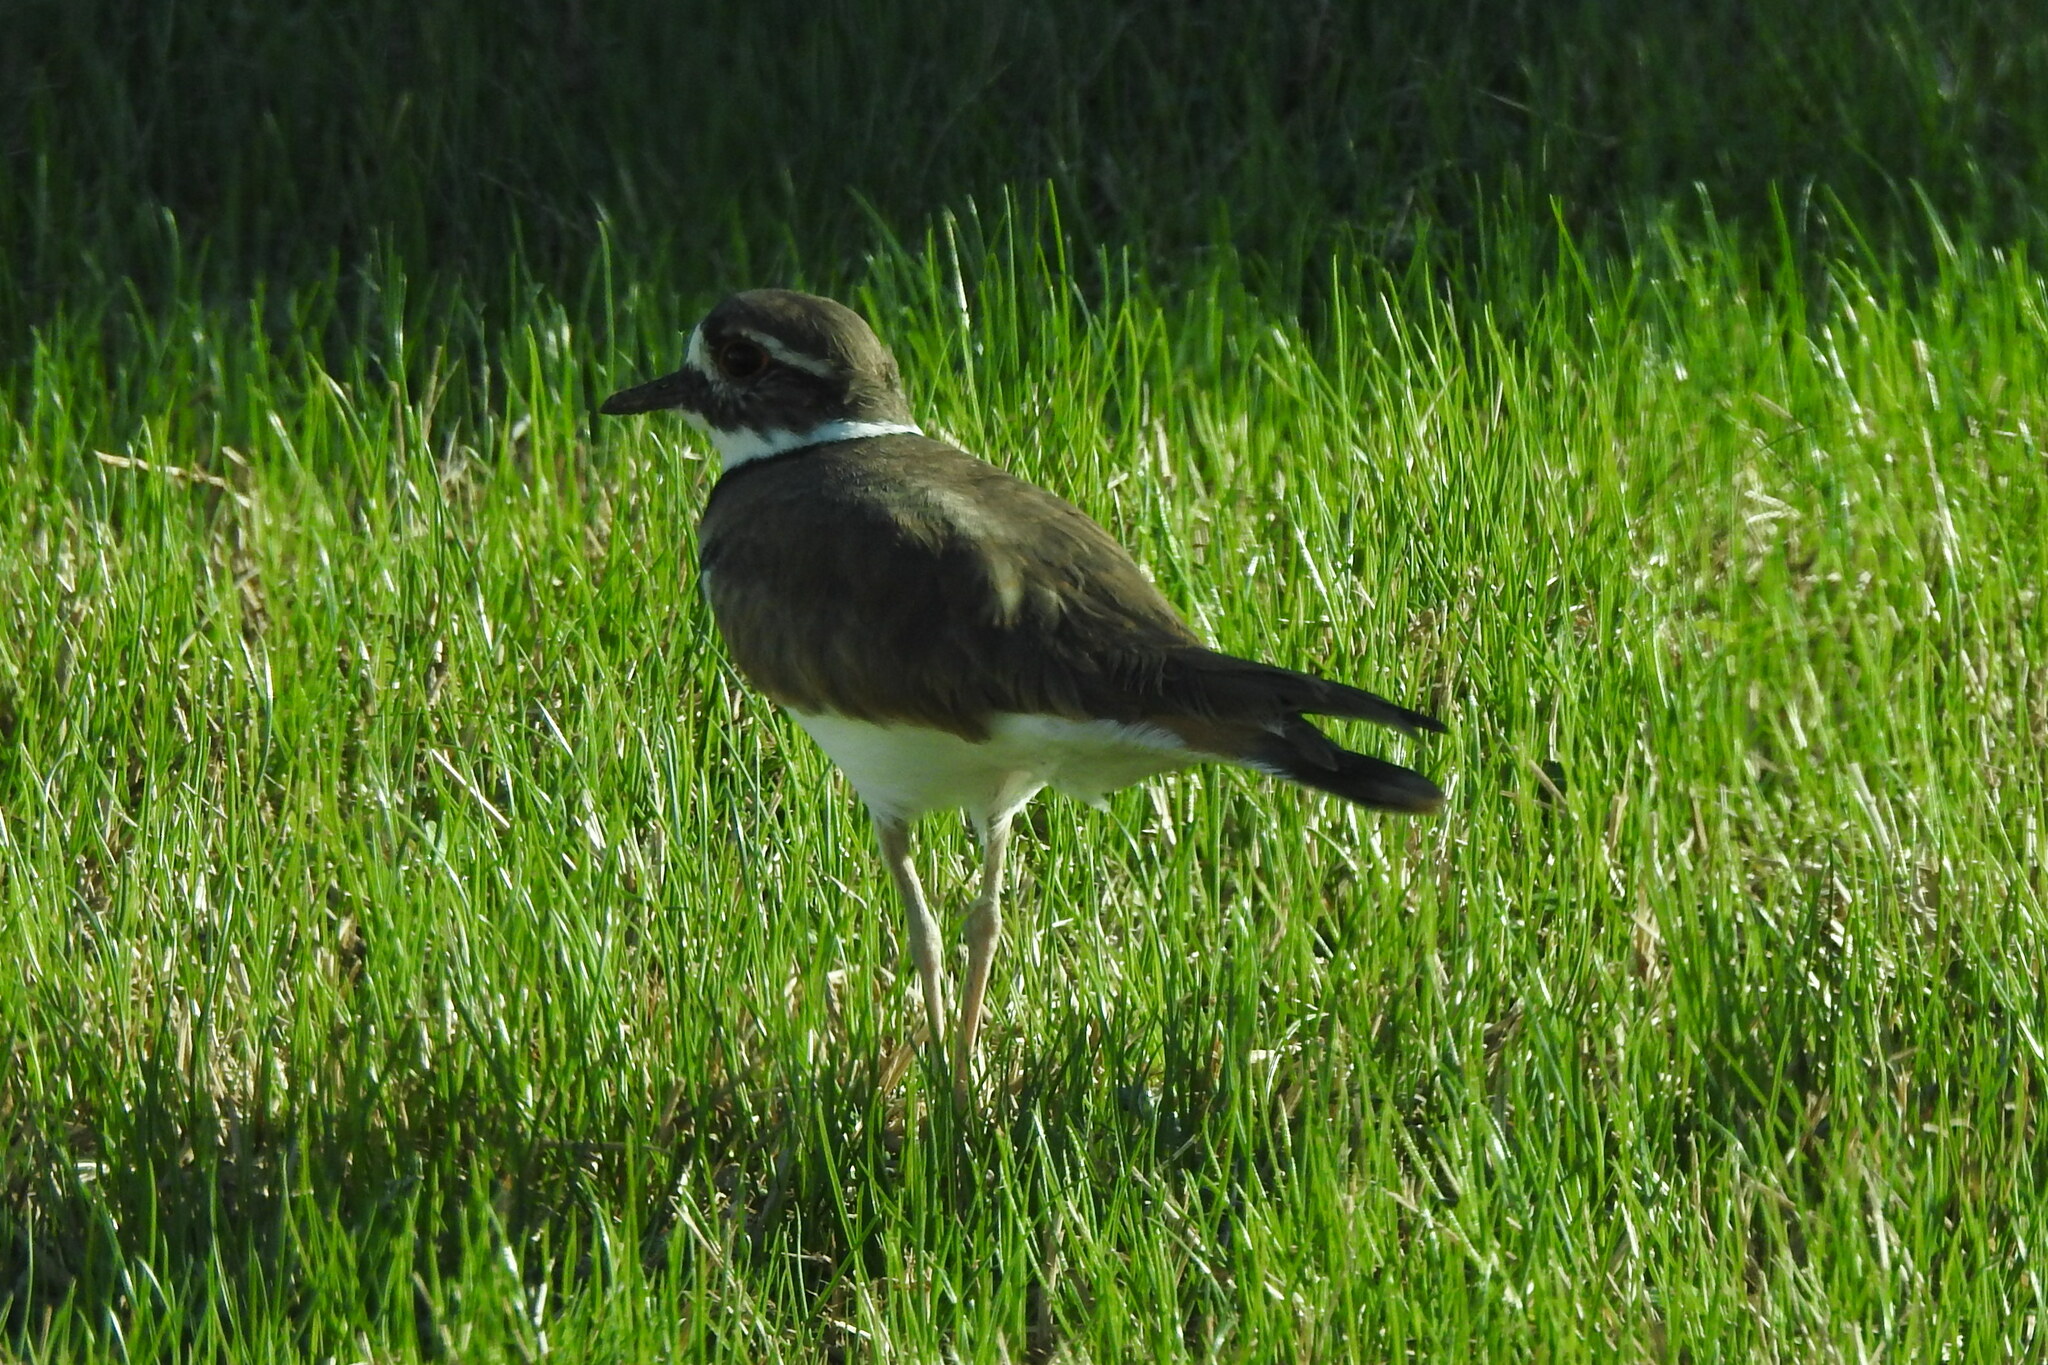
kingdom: Animalia
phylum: Chordata
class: Aves
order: Charadriiformes
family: Charadriidae
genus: Charadrius
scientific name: Charadrius vociferus
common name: Killdeer
